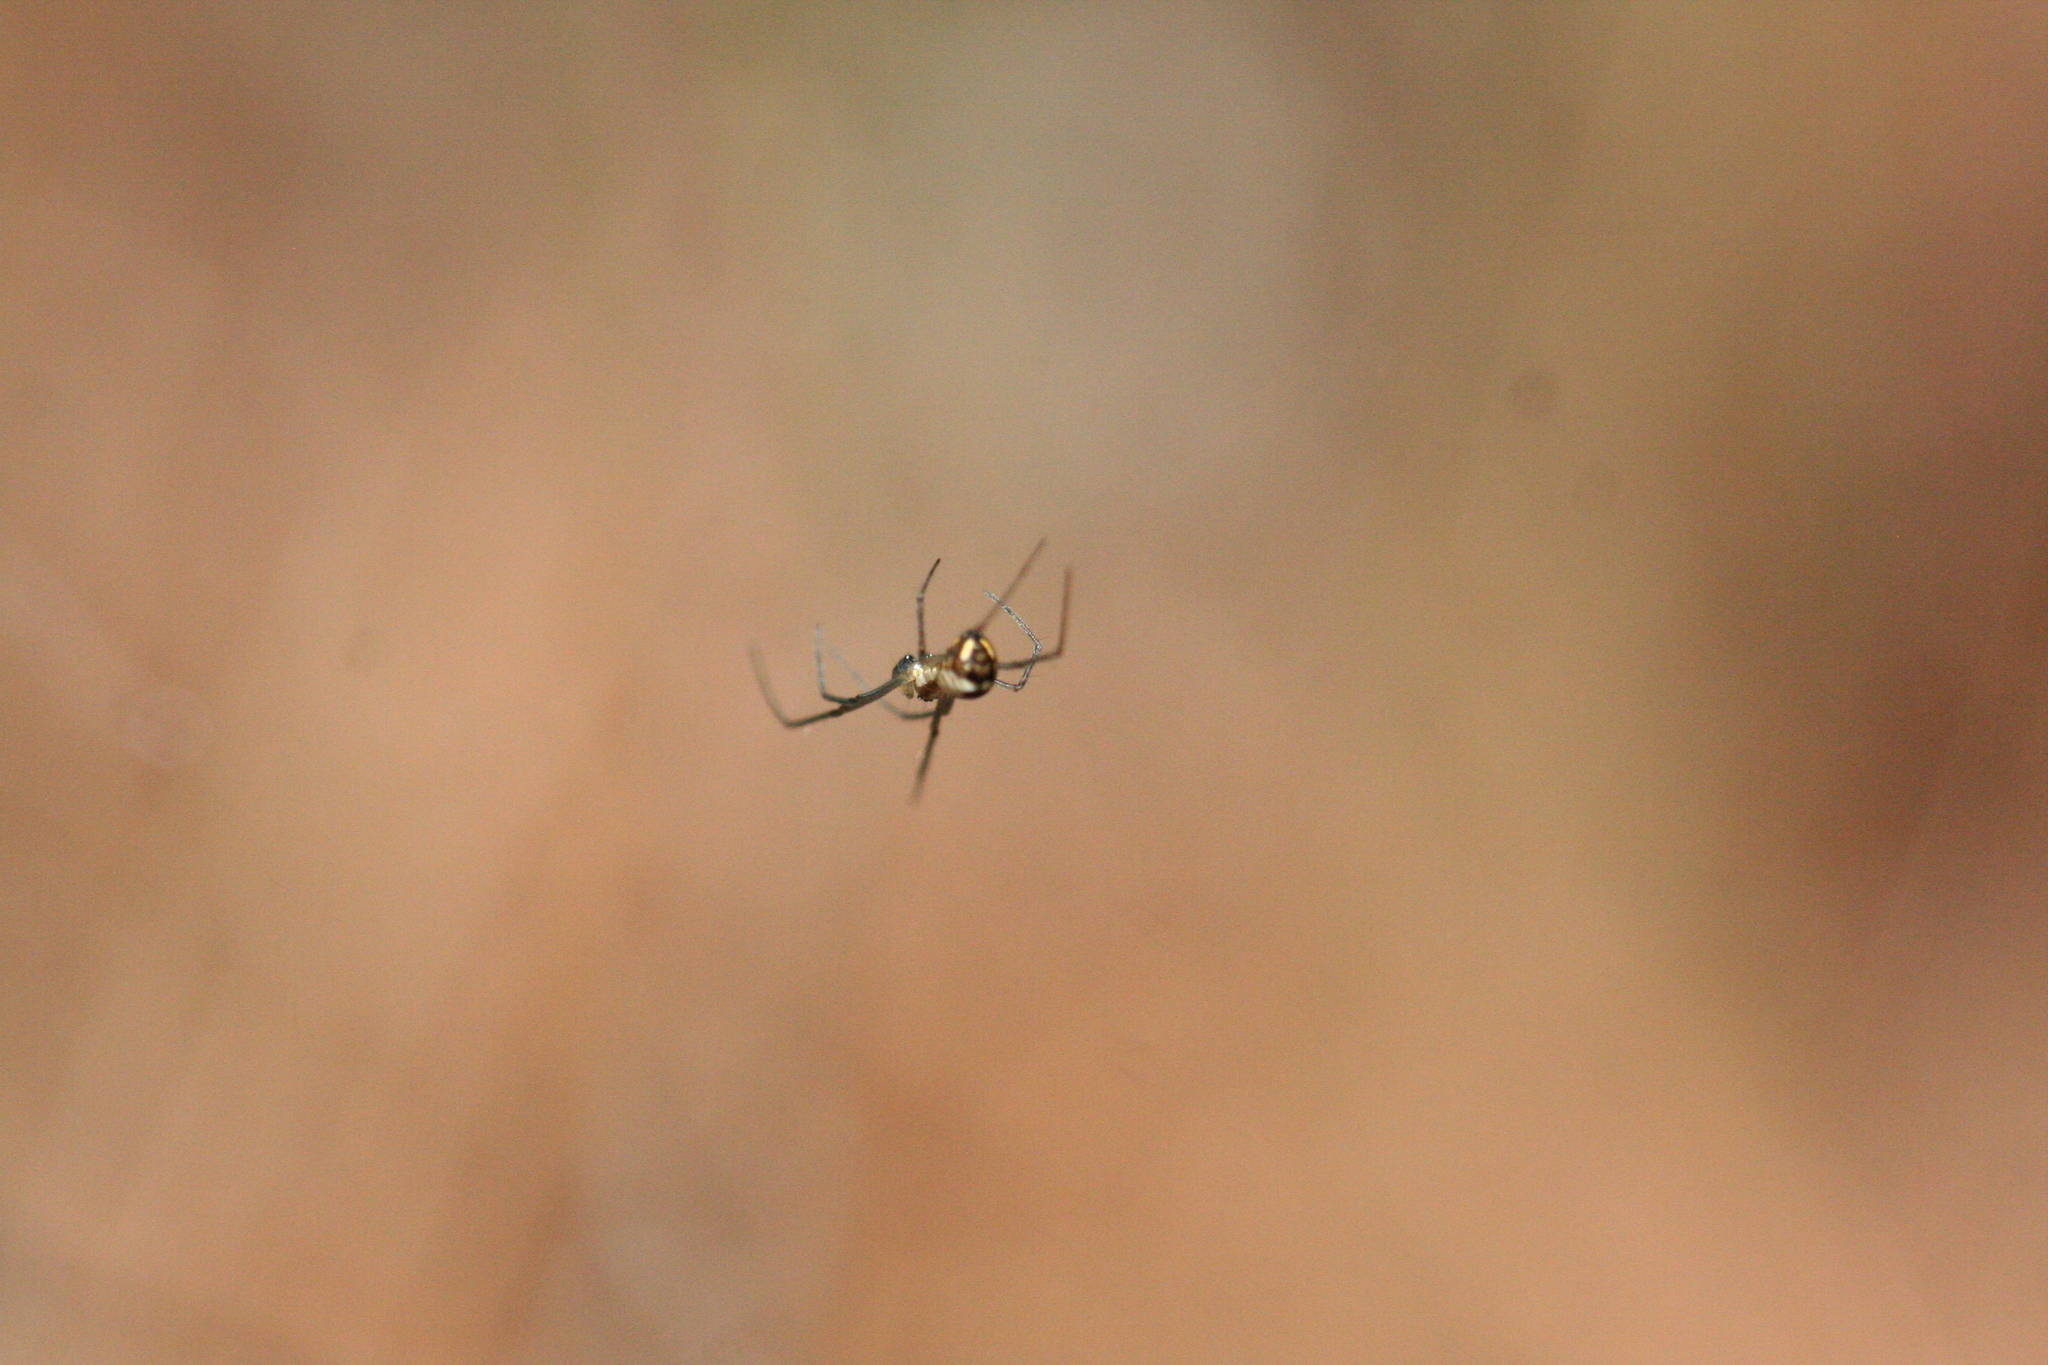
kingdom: Animalia
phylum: Arthropoda
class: Arachnida
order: Araneae
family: Linyphiidae
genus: Neriene
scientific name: Neriene radiata
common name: Filmy dome spider
